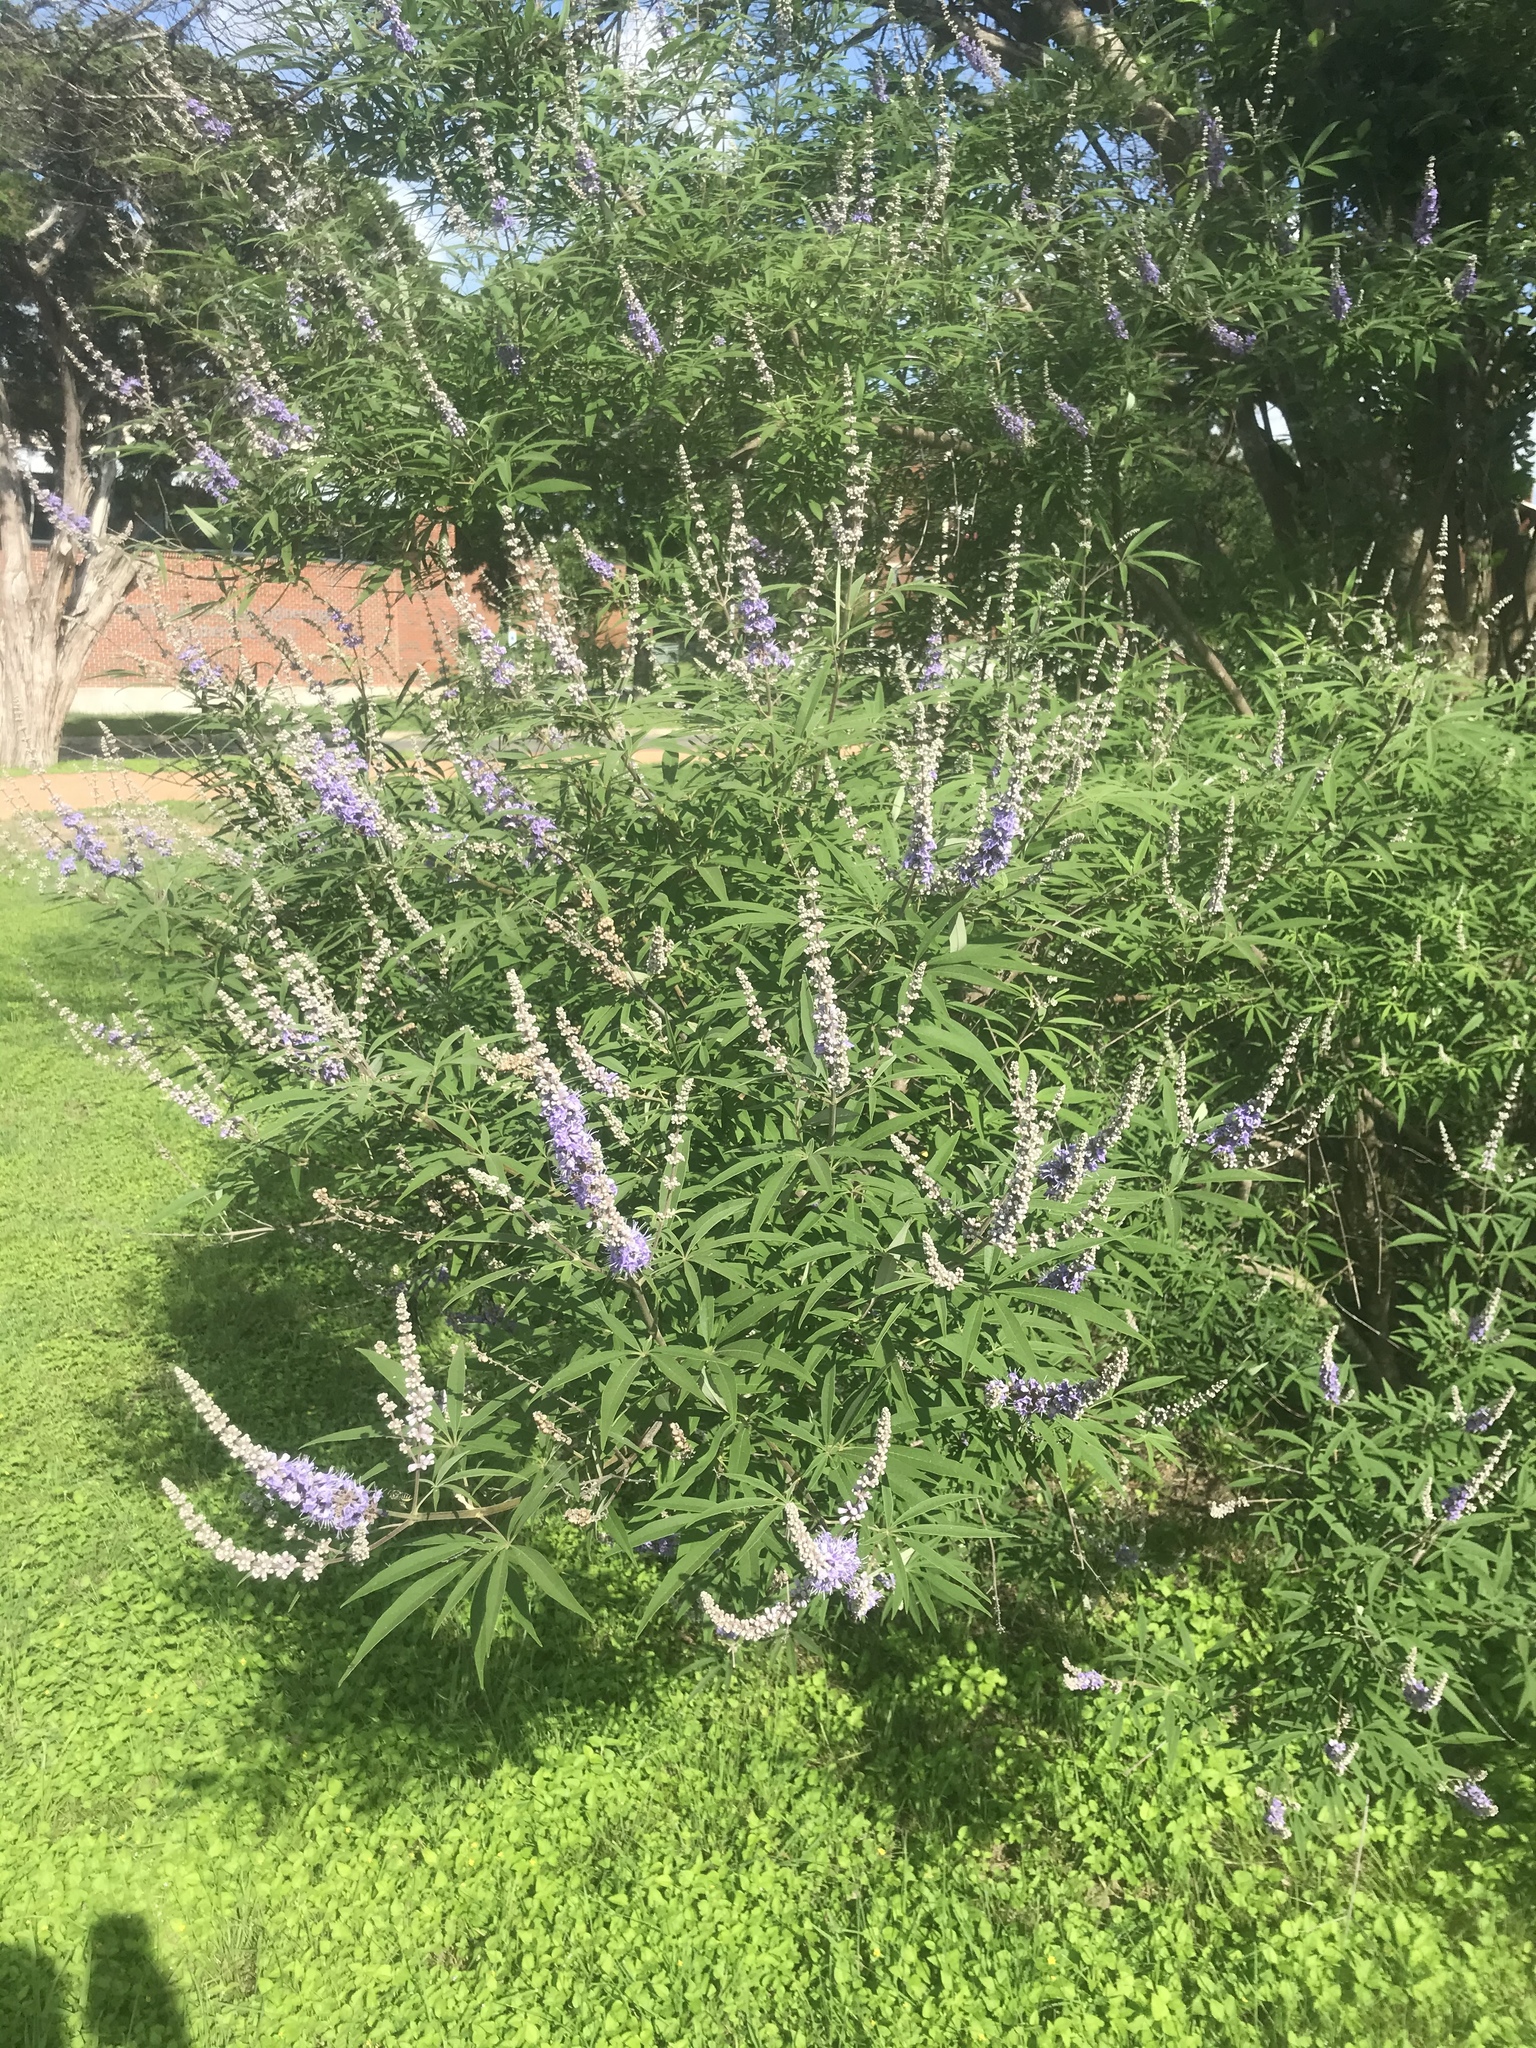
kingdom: Plantae
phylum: Tracheophyta
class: Magnoliopsida
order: Lamiales
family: Lamiaceae
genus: Vitex
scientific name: Vitex agnus-castus
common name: Chasteberry
